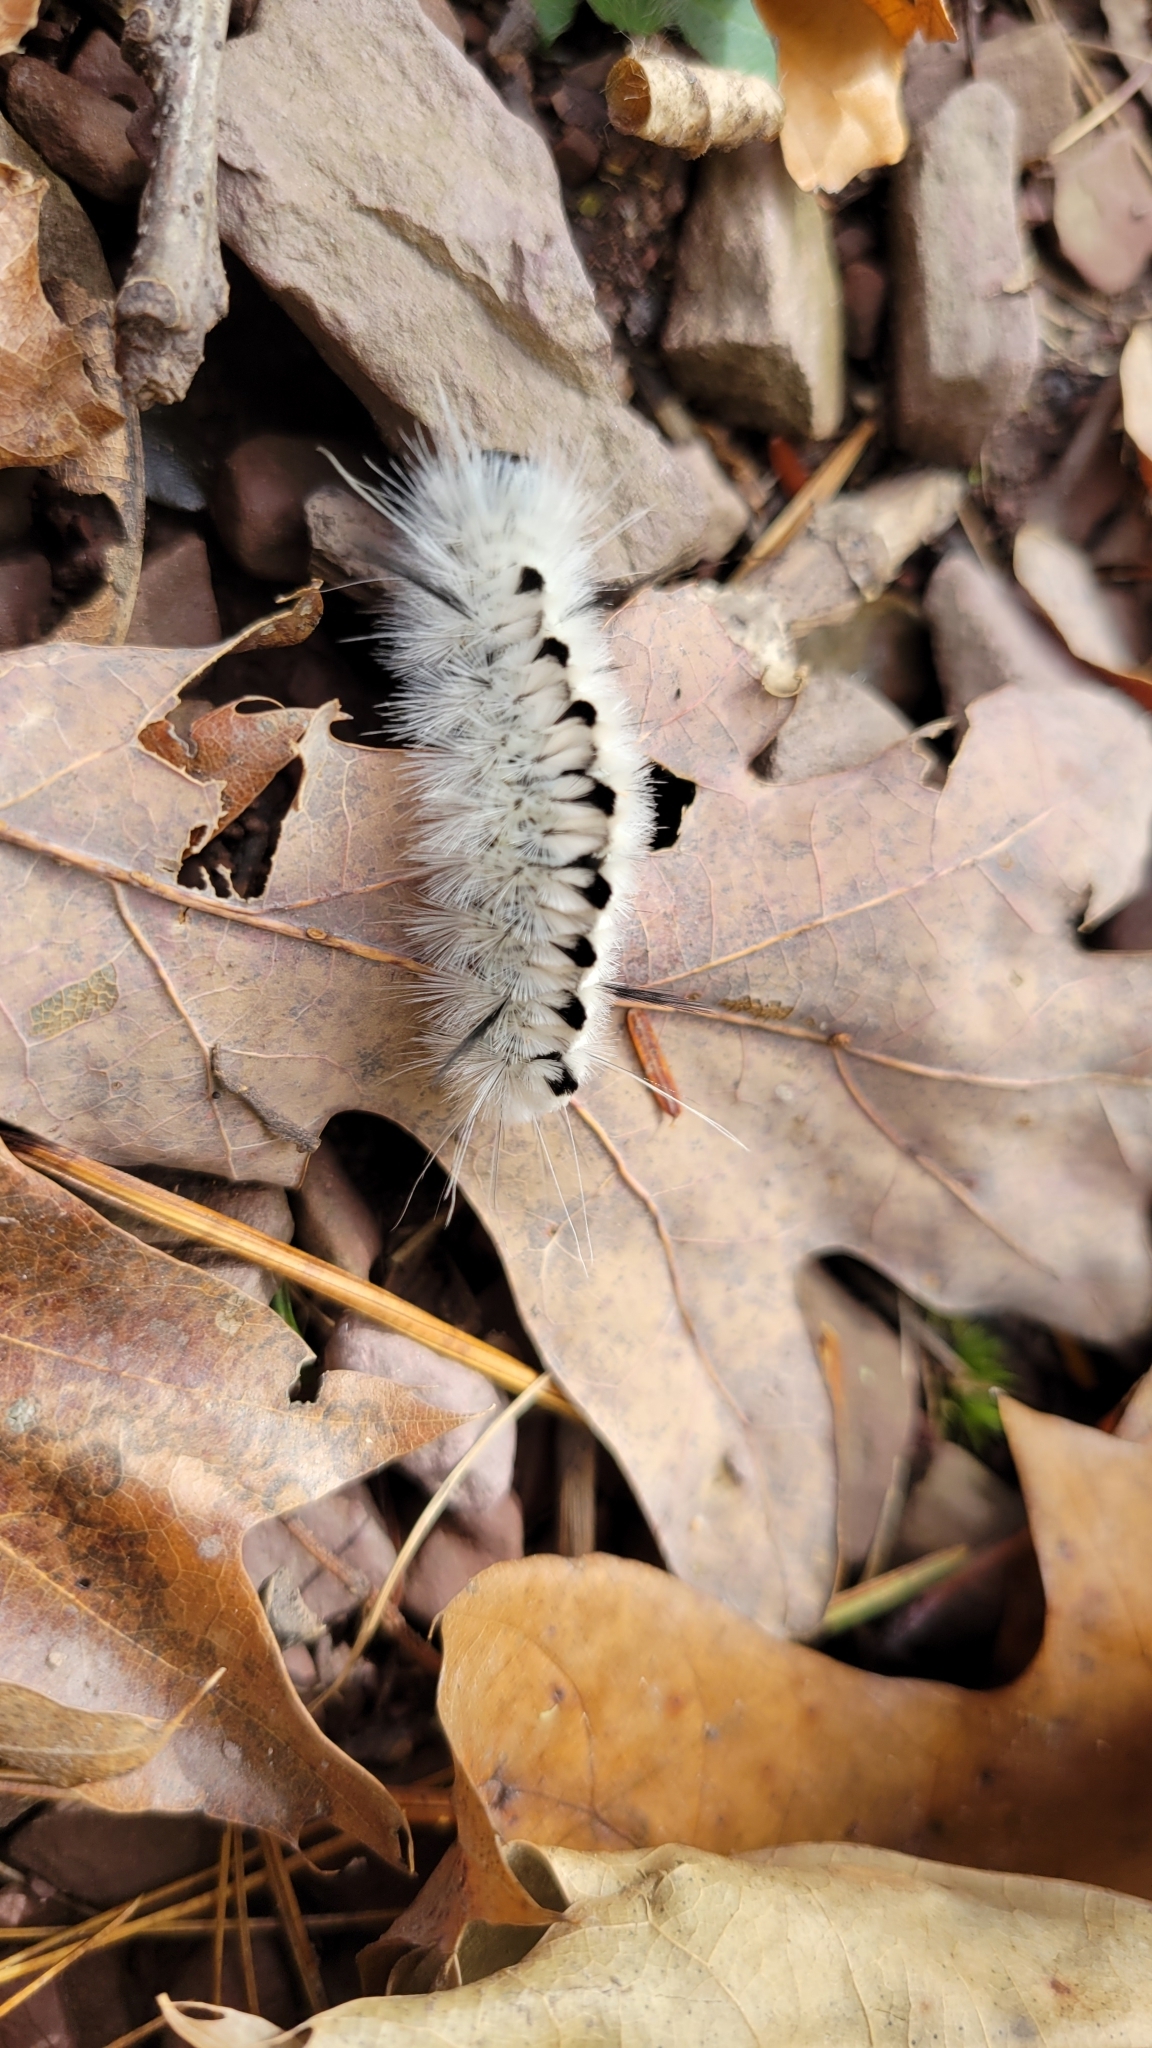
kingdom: Animalia
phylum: Arthropoda
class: Insecta
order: Lepidoptera
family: Erebidae
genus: Lophocampa
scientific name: Lophocampa caryae
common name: Hickory tussock moth
